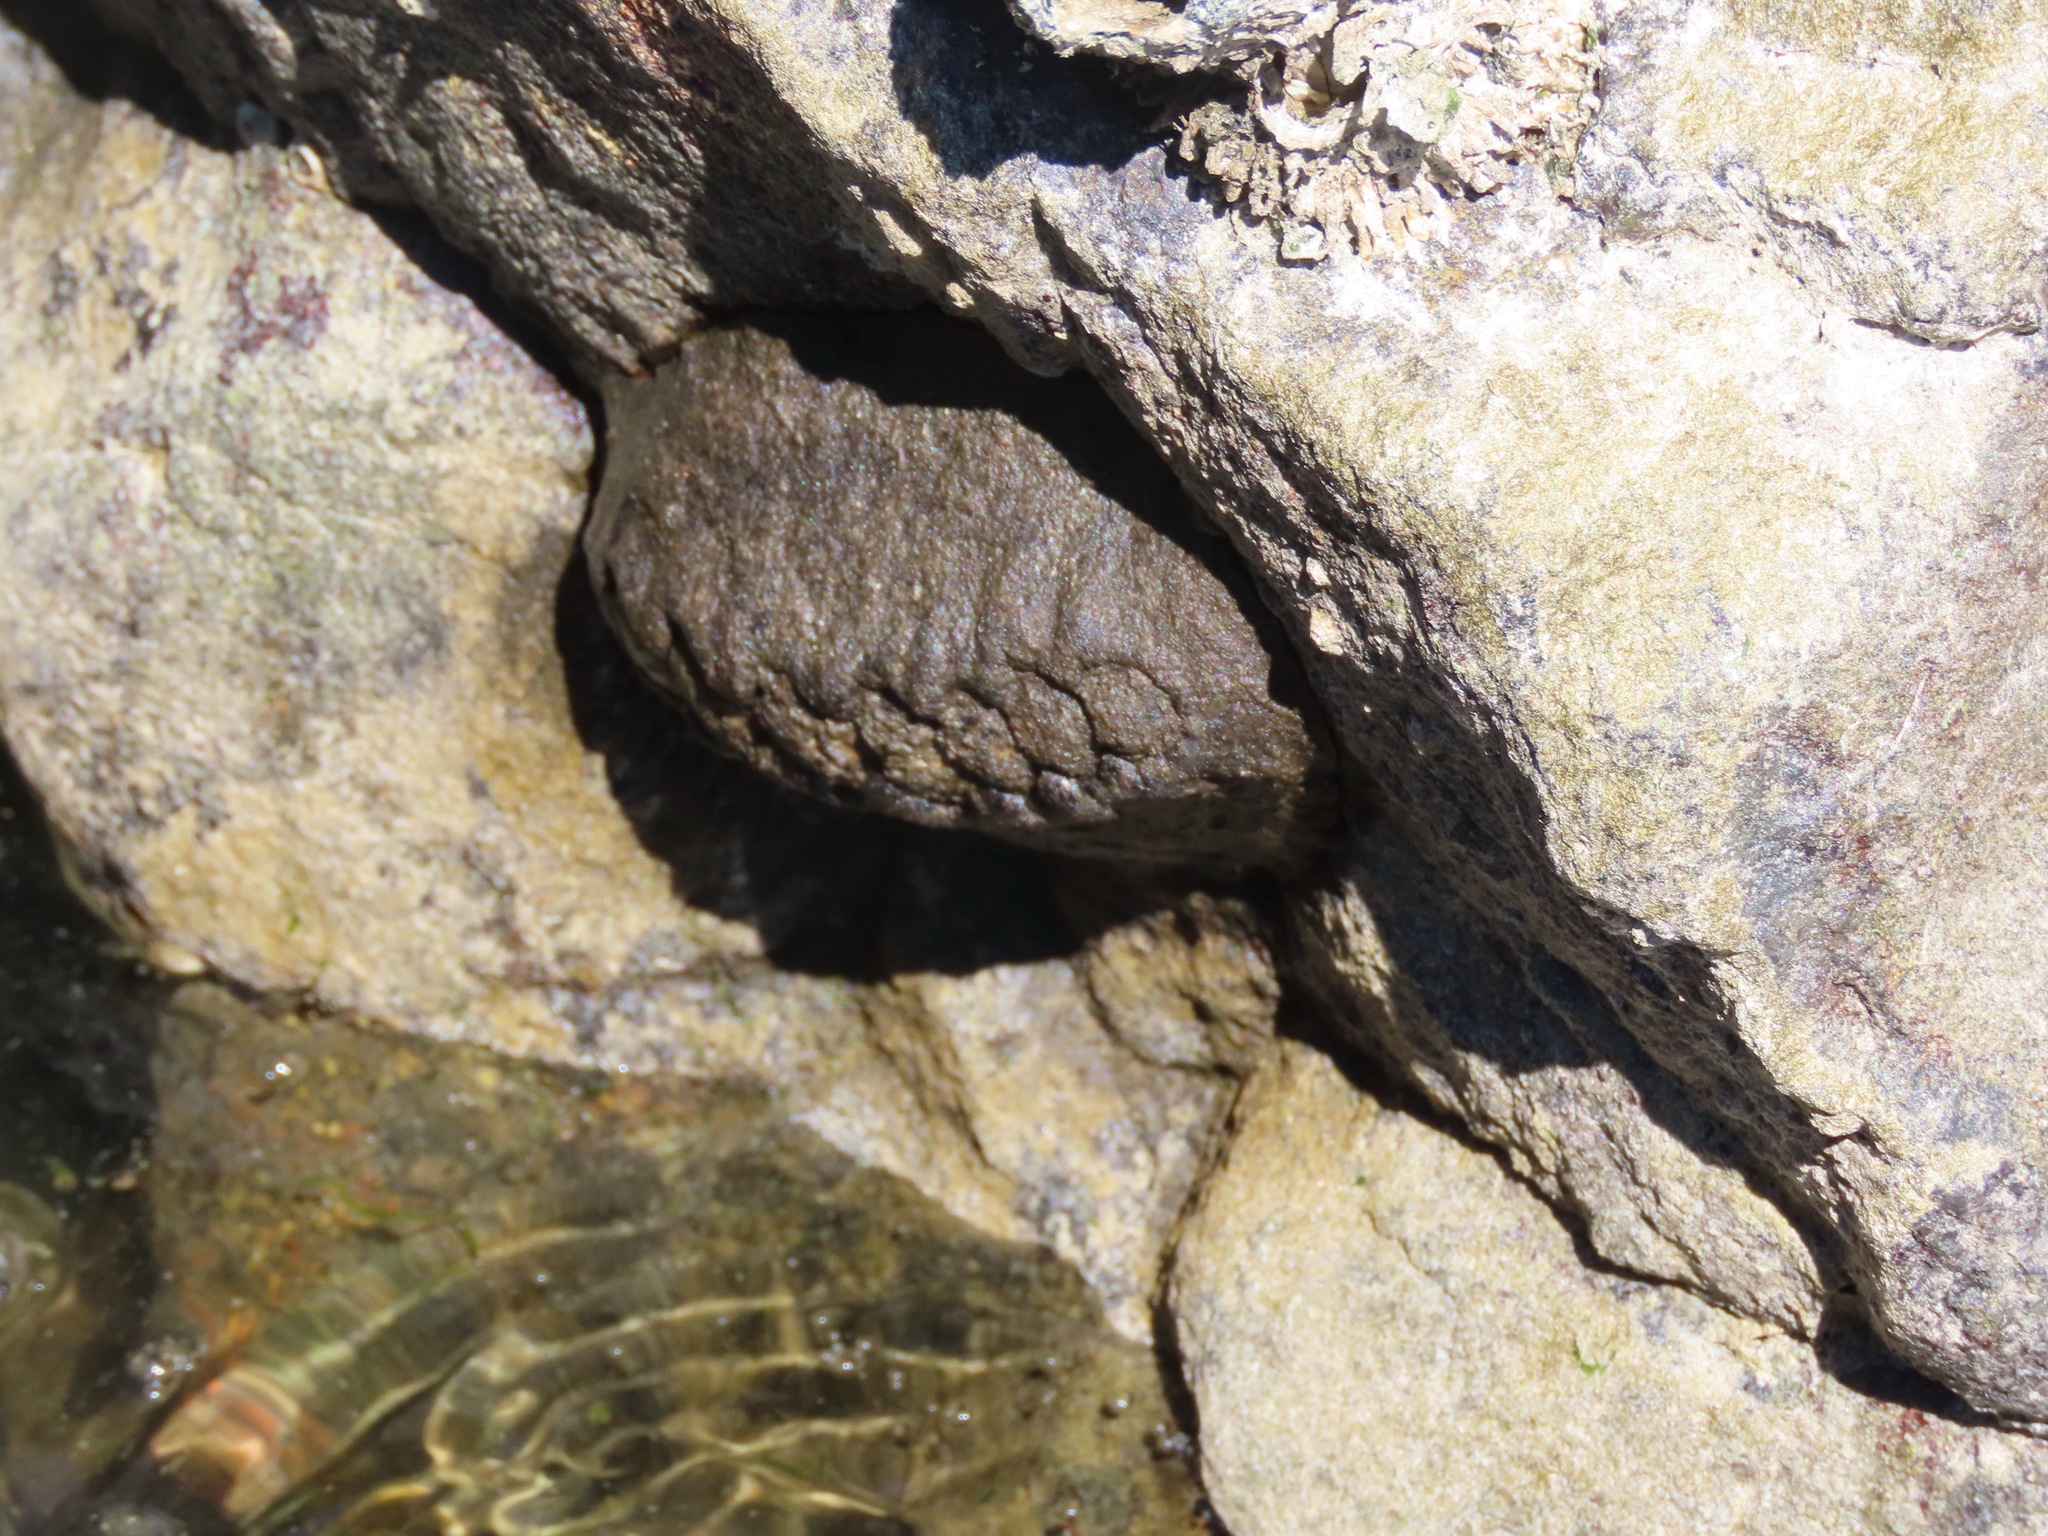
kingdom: Animalia
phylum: Mollusca
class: Polyplacophora
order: Chitonida
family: Mopaliidae
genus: Katharina
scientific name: Katharina tunicata
